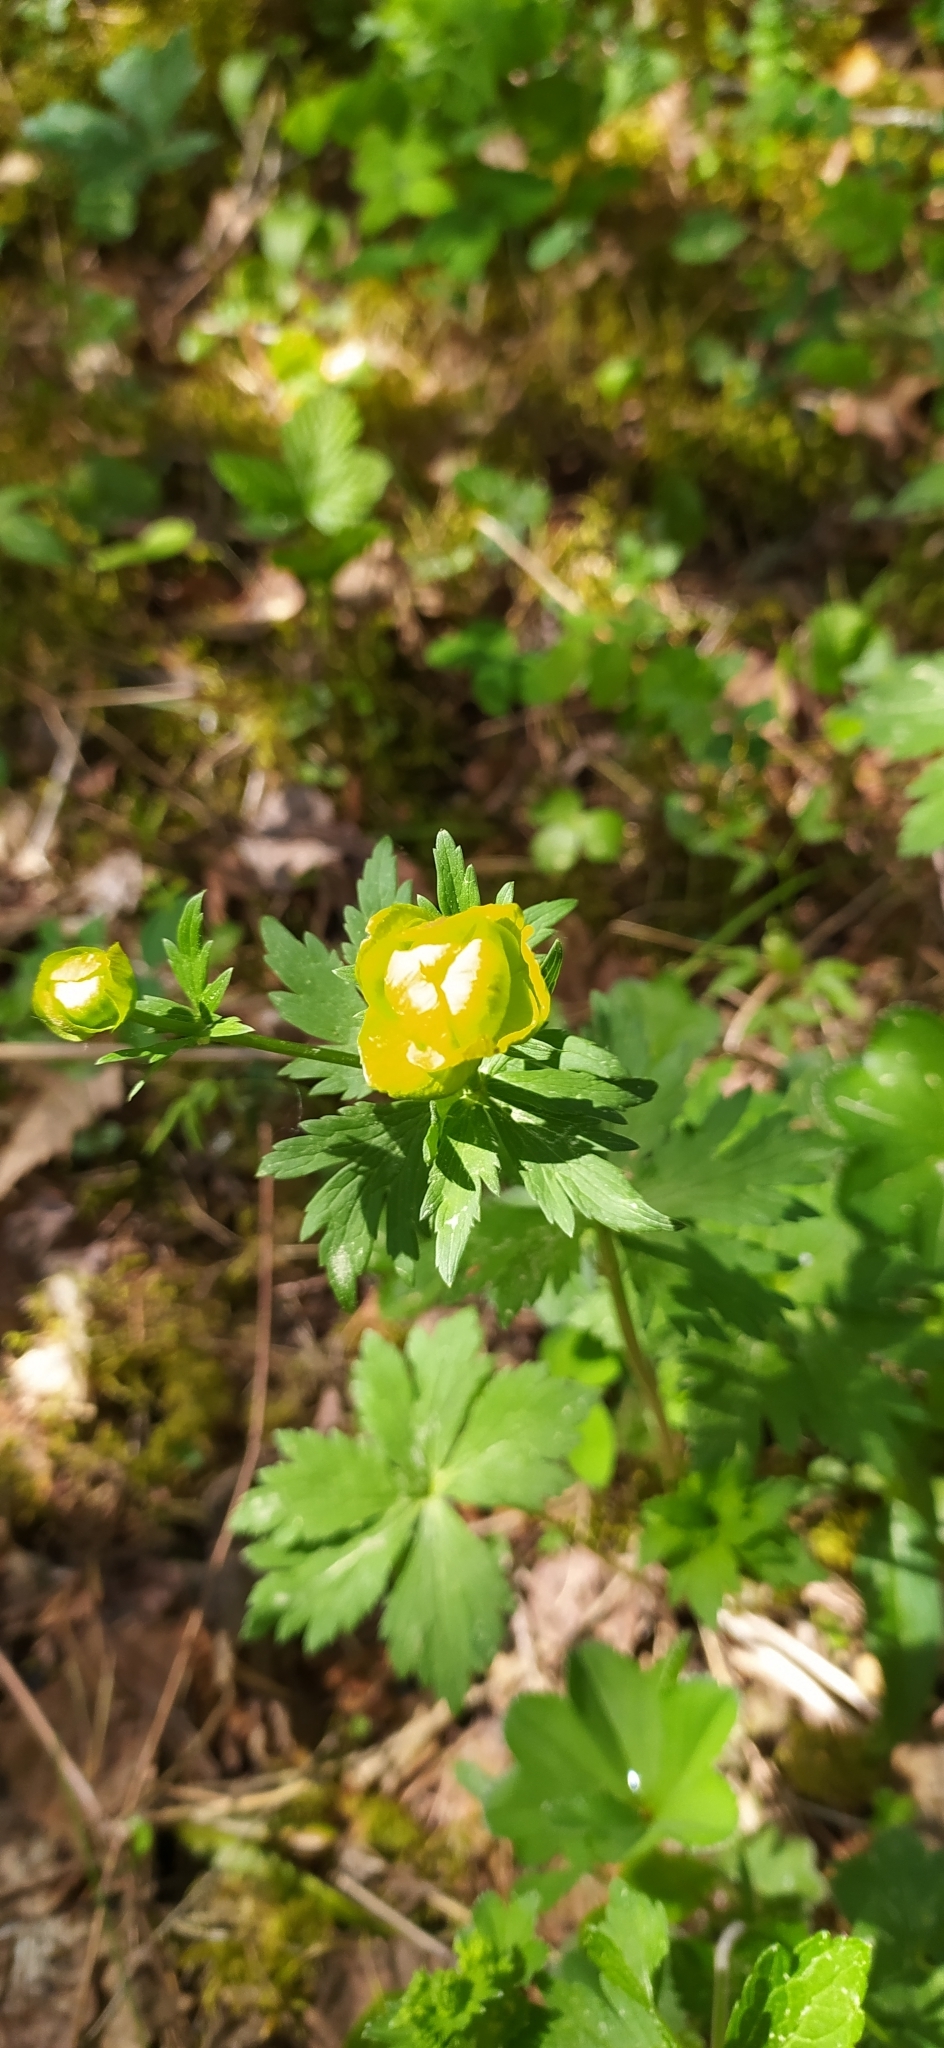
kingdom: Plantae
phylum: Tracheophyta
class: Magnoliopsida
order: Ranunculales
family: Ranunculaceae
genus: Trollius
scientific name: Trollius europaeus
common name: European globeflower
